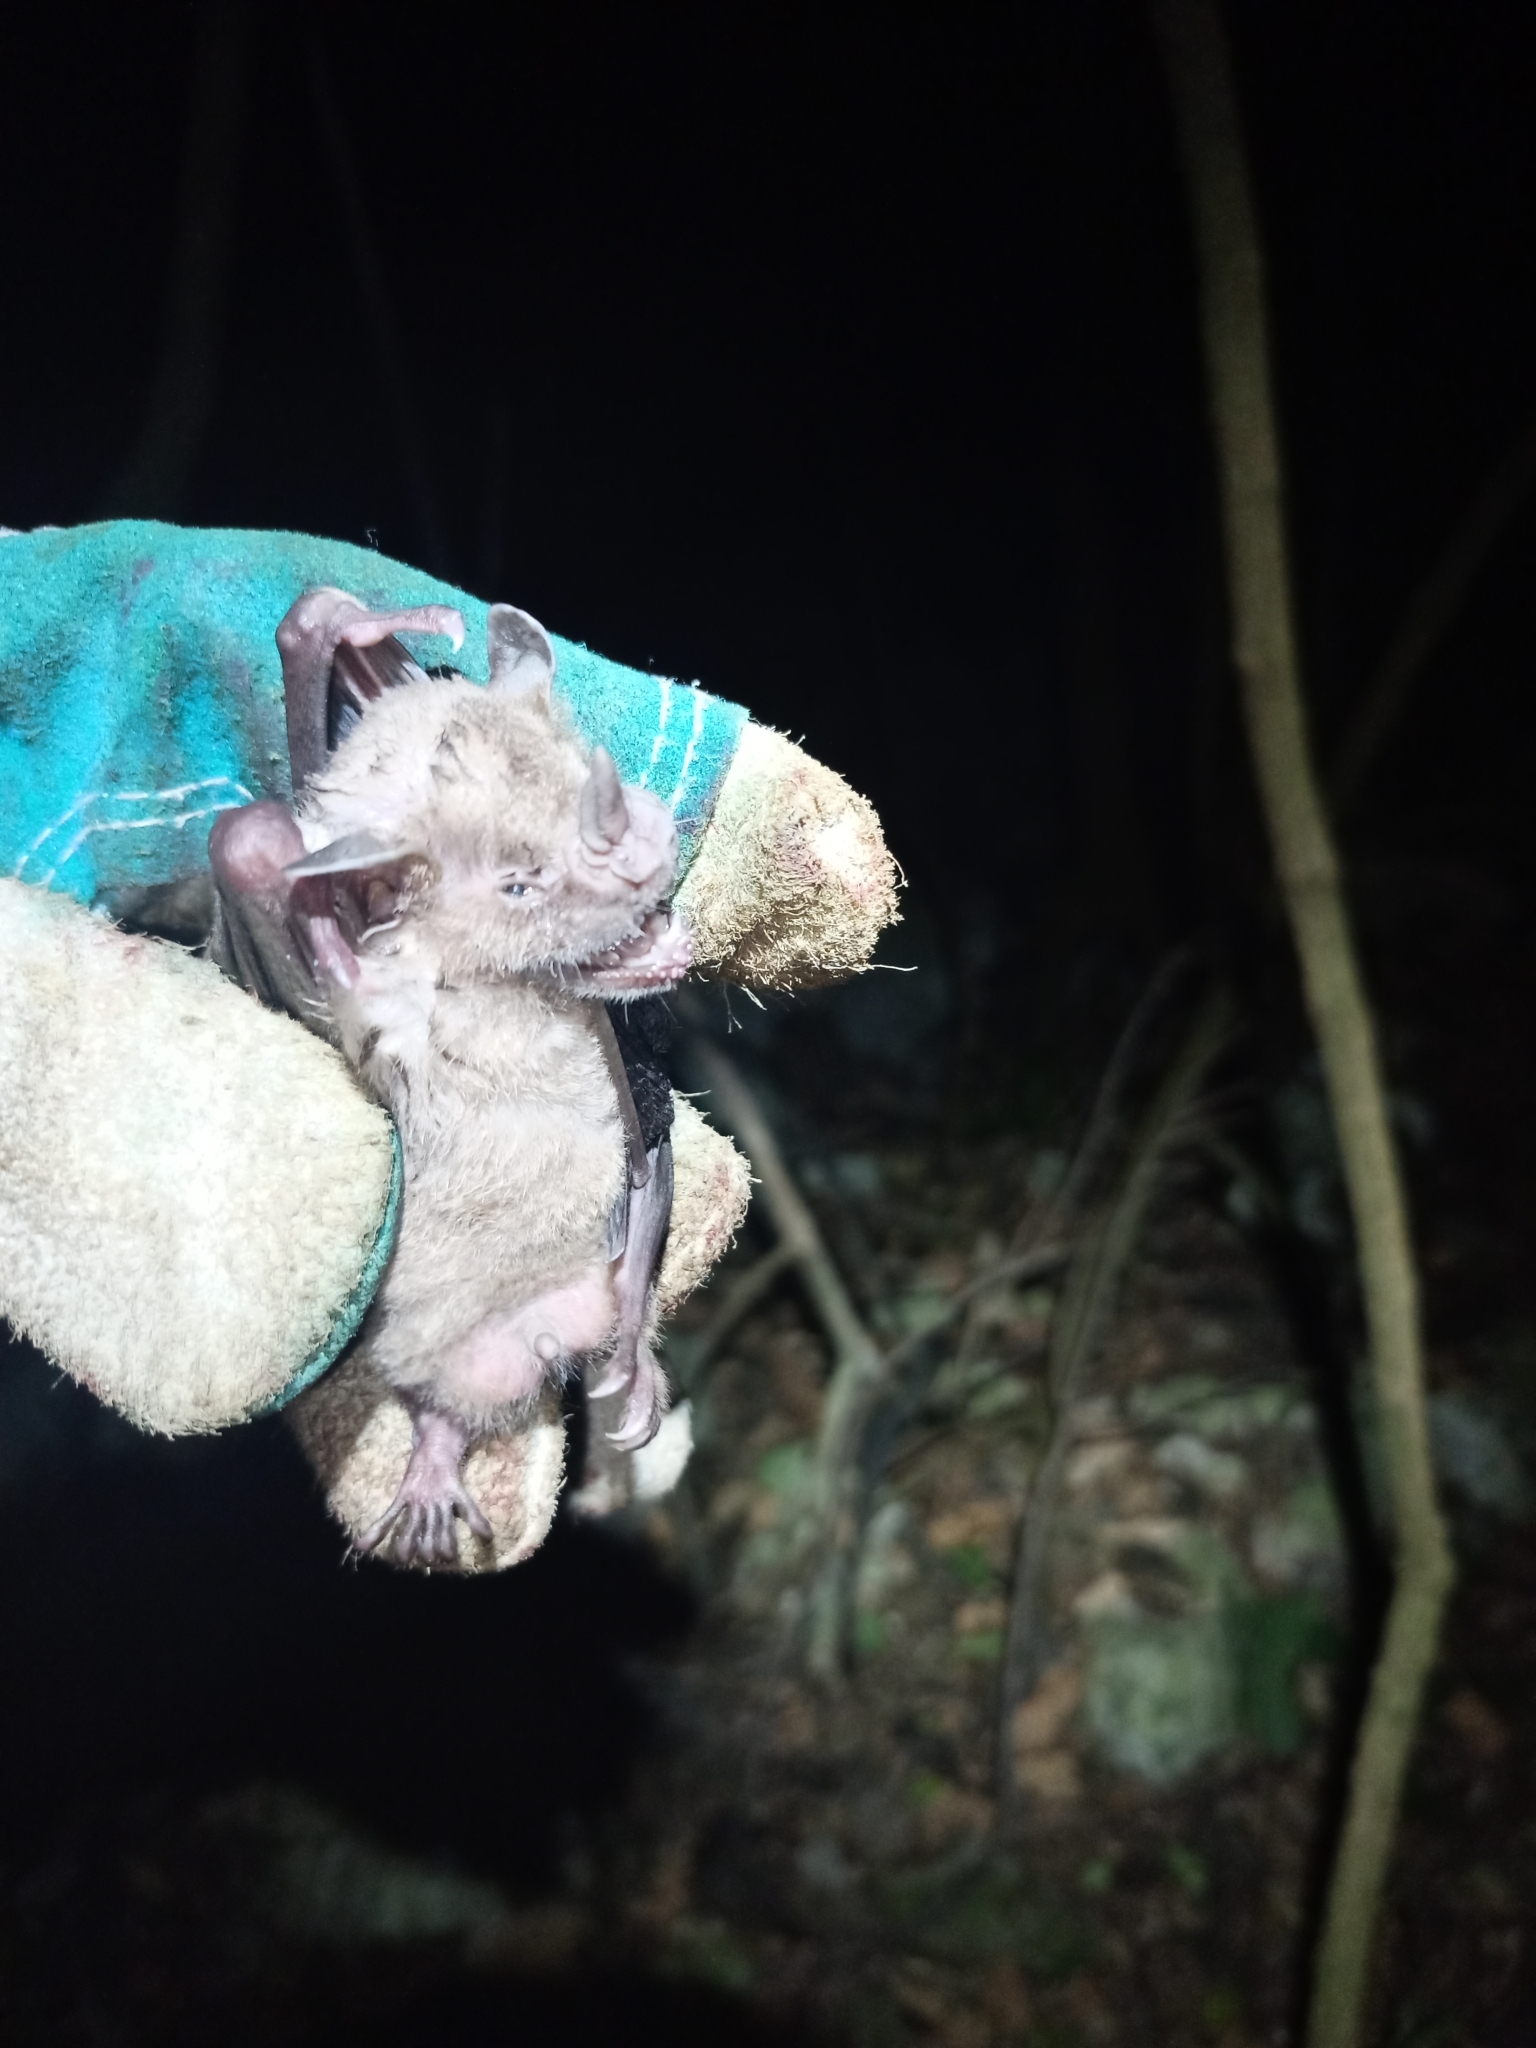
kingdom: Animalia
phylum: Chordata
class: Mammalia
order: Chiroptera
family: Phyllostomidae
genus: Artibeus
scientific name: Artibeus jamaicensis
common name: Jamaican fruit-eating bat
